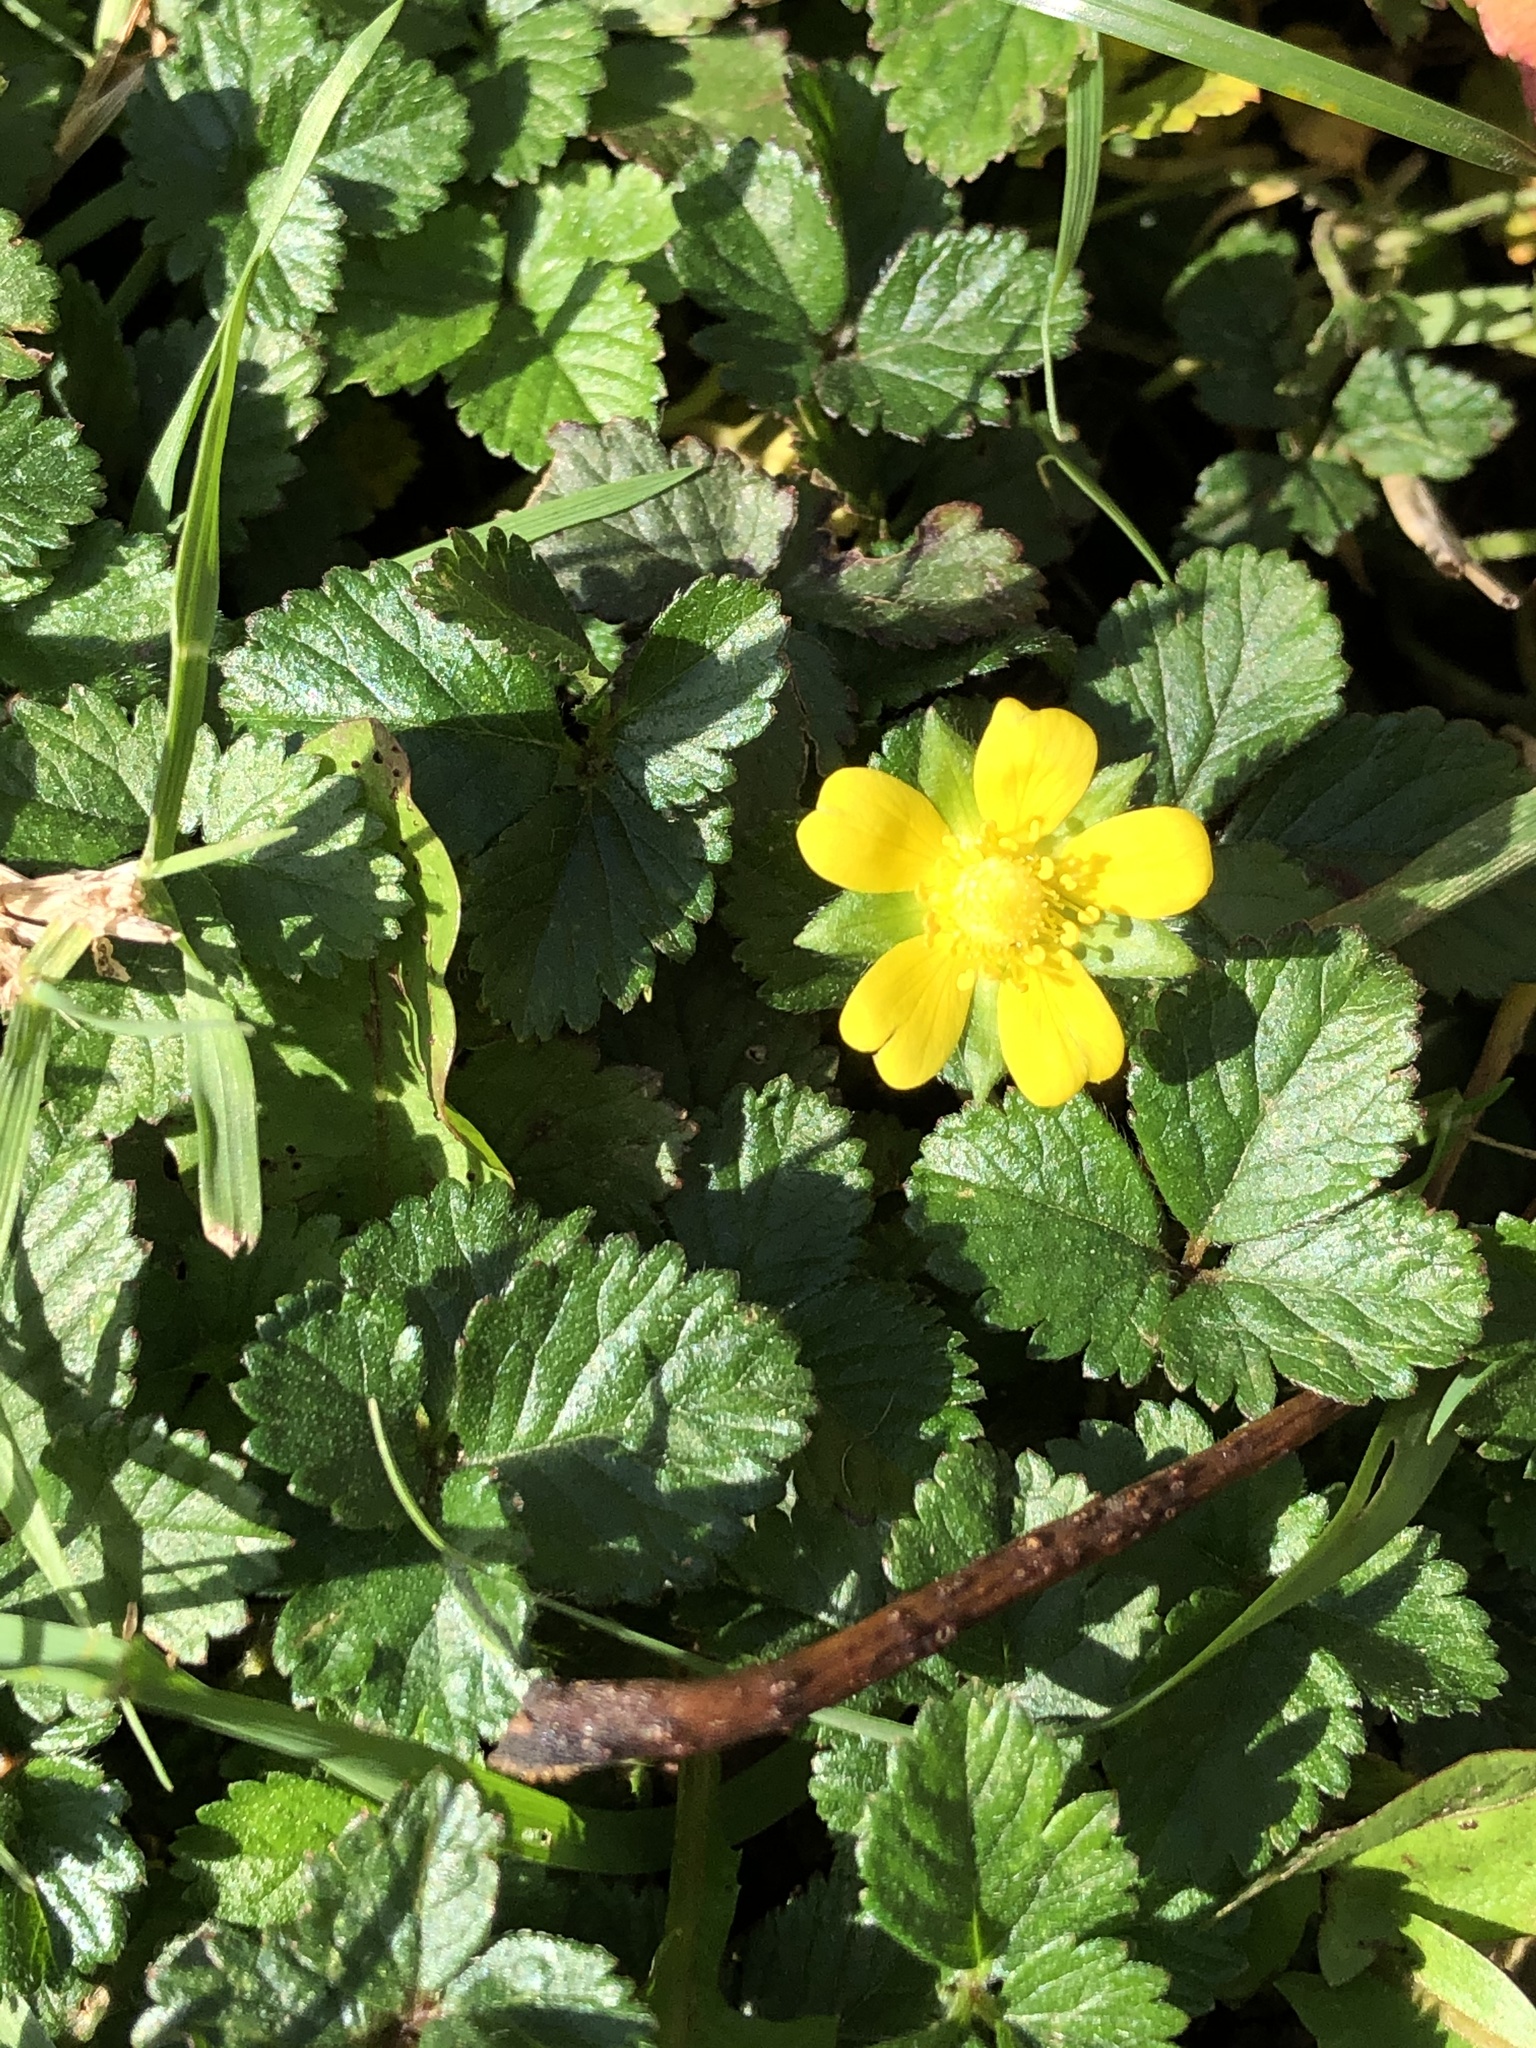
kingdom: Plantae
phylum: Tracheophyta
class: Magnoliopsida
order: Rosales
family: Rosaceae
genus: Potentilla
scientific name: Potentilla indica
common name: Yellow-flowered strawberry
